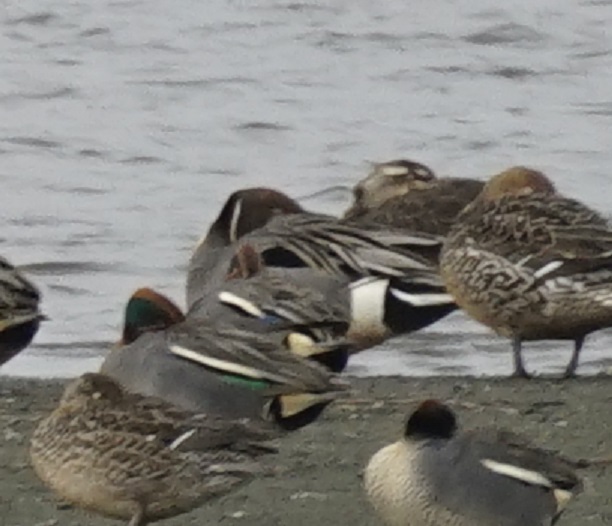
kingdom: Animalia
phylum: Chordata
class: Aves
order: Anseriformes
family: Anatidae
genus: Anas
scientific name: Anas crecca
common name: Eurasian teal
